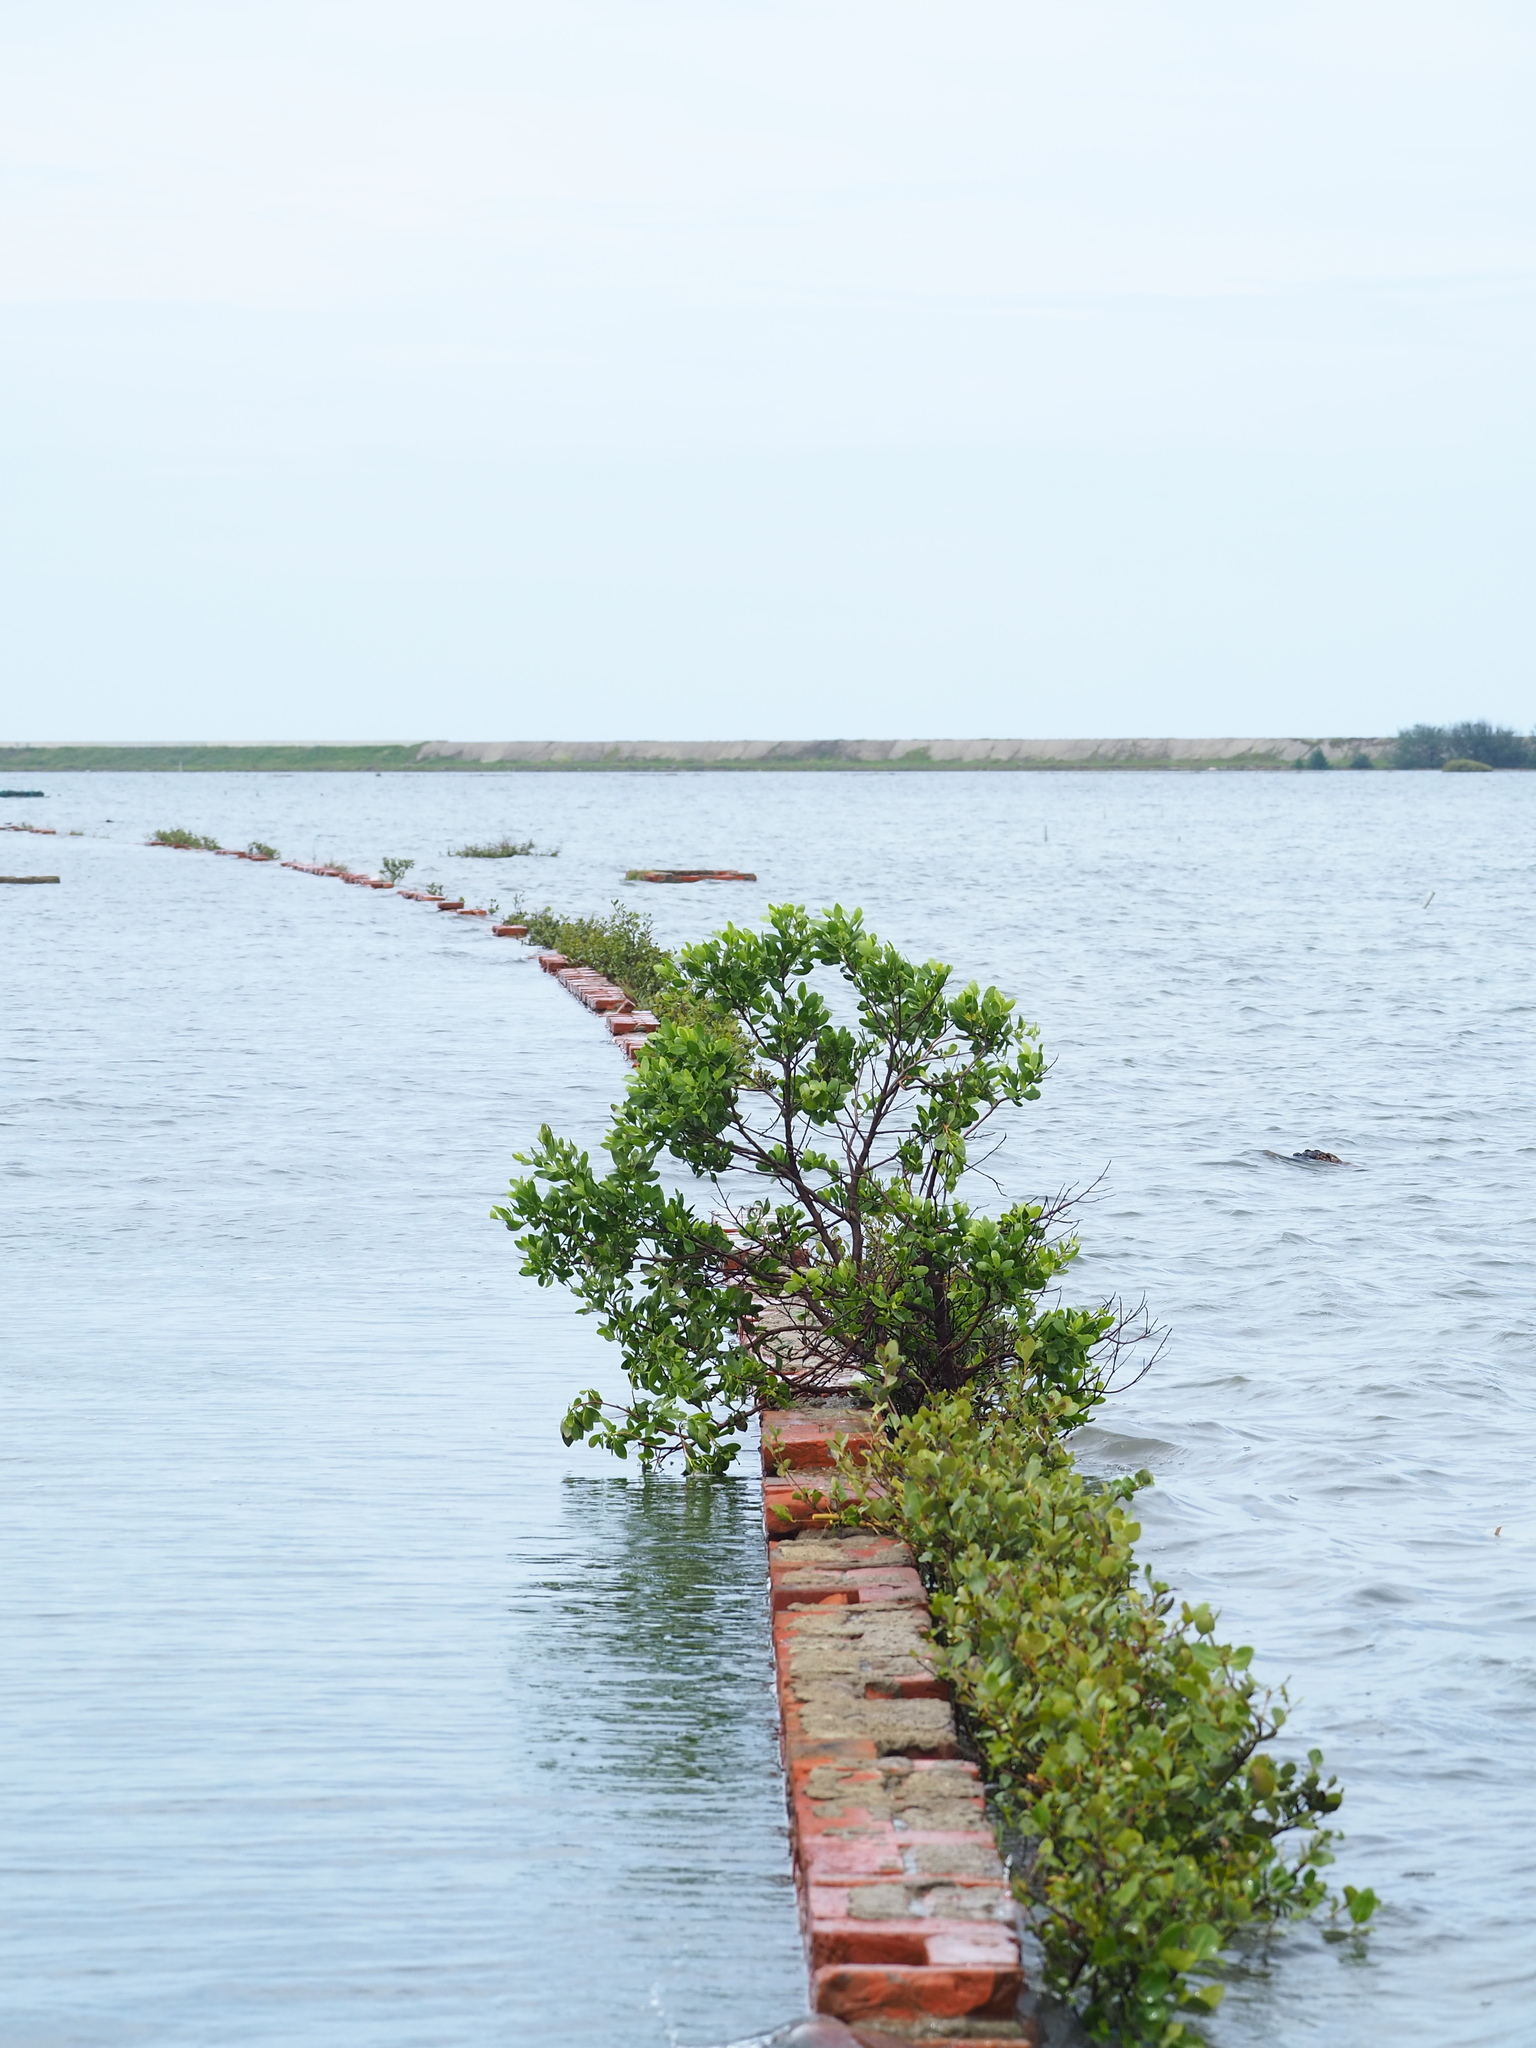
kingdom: Plantae
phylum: Tracheophyta
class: Magnoliopsida
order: Myrtales
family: Combretaceae
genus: Lumnitzera
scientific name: Lumnitzera racemosa
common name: White-flowered black mangrove
